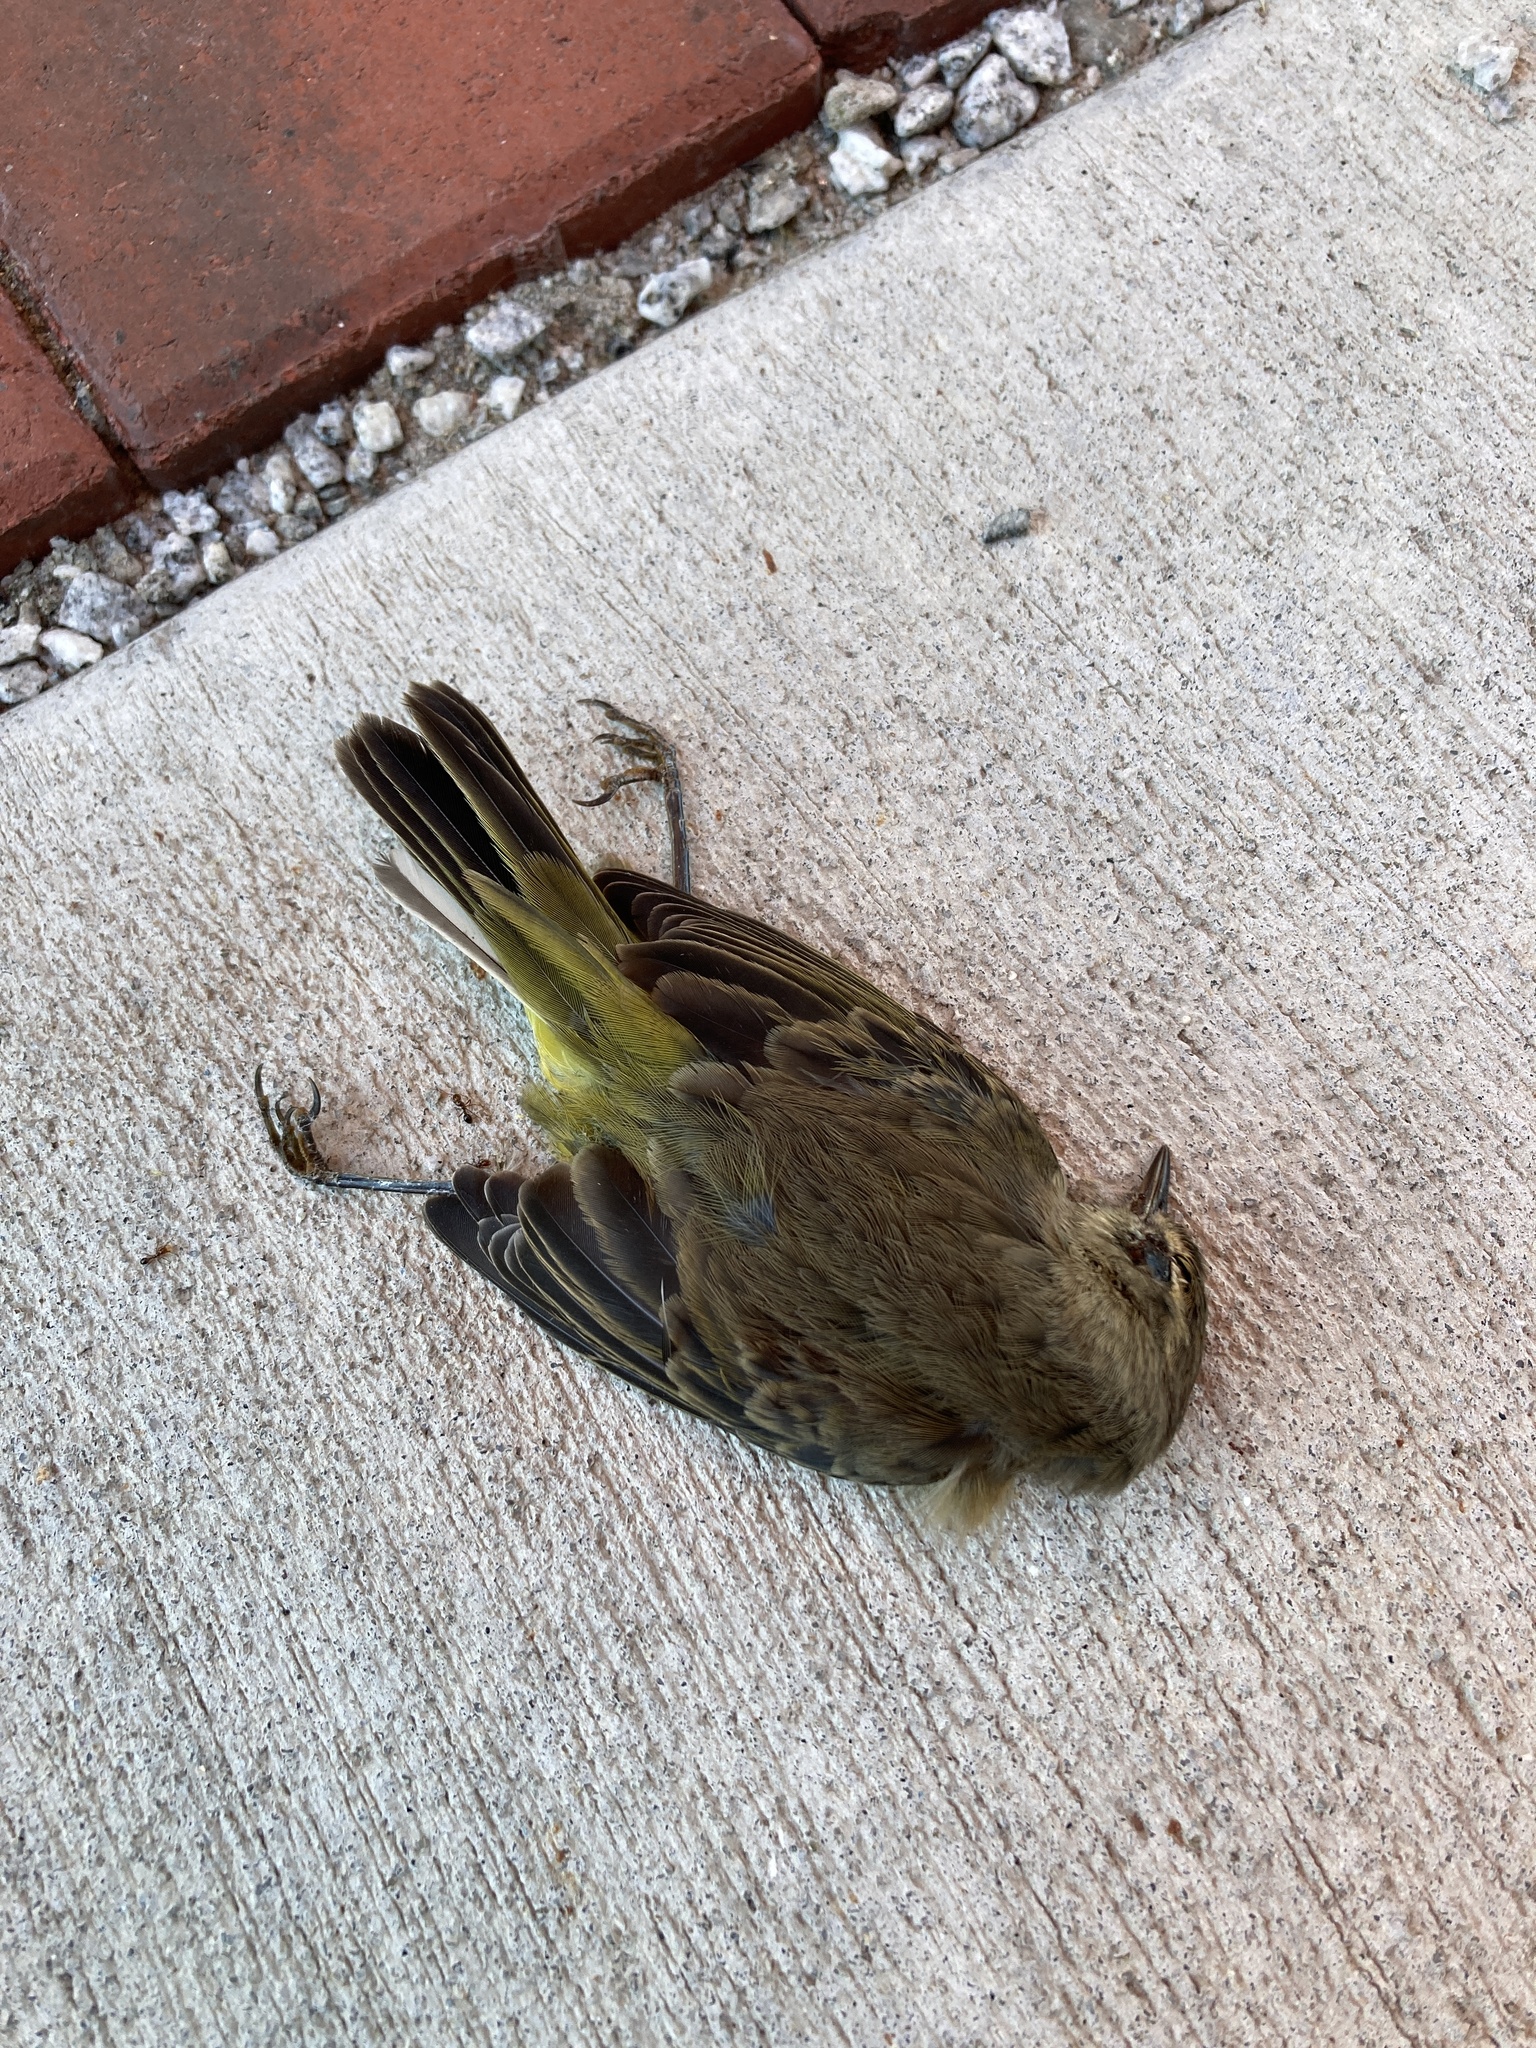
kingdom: Animalia
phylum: Chordata
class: Aves
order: Passeriformes
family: Parulidae
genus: Setophaga
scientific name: Setophaga palmarum
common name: Palm warbler
